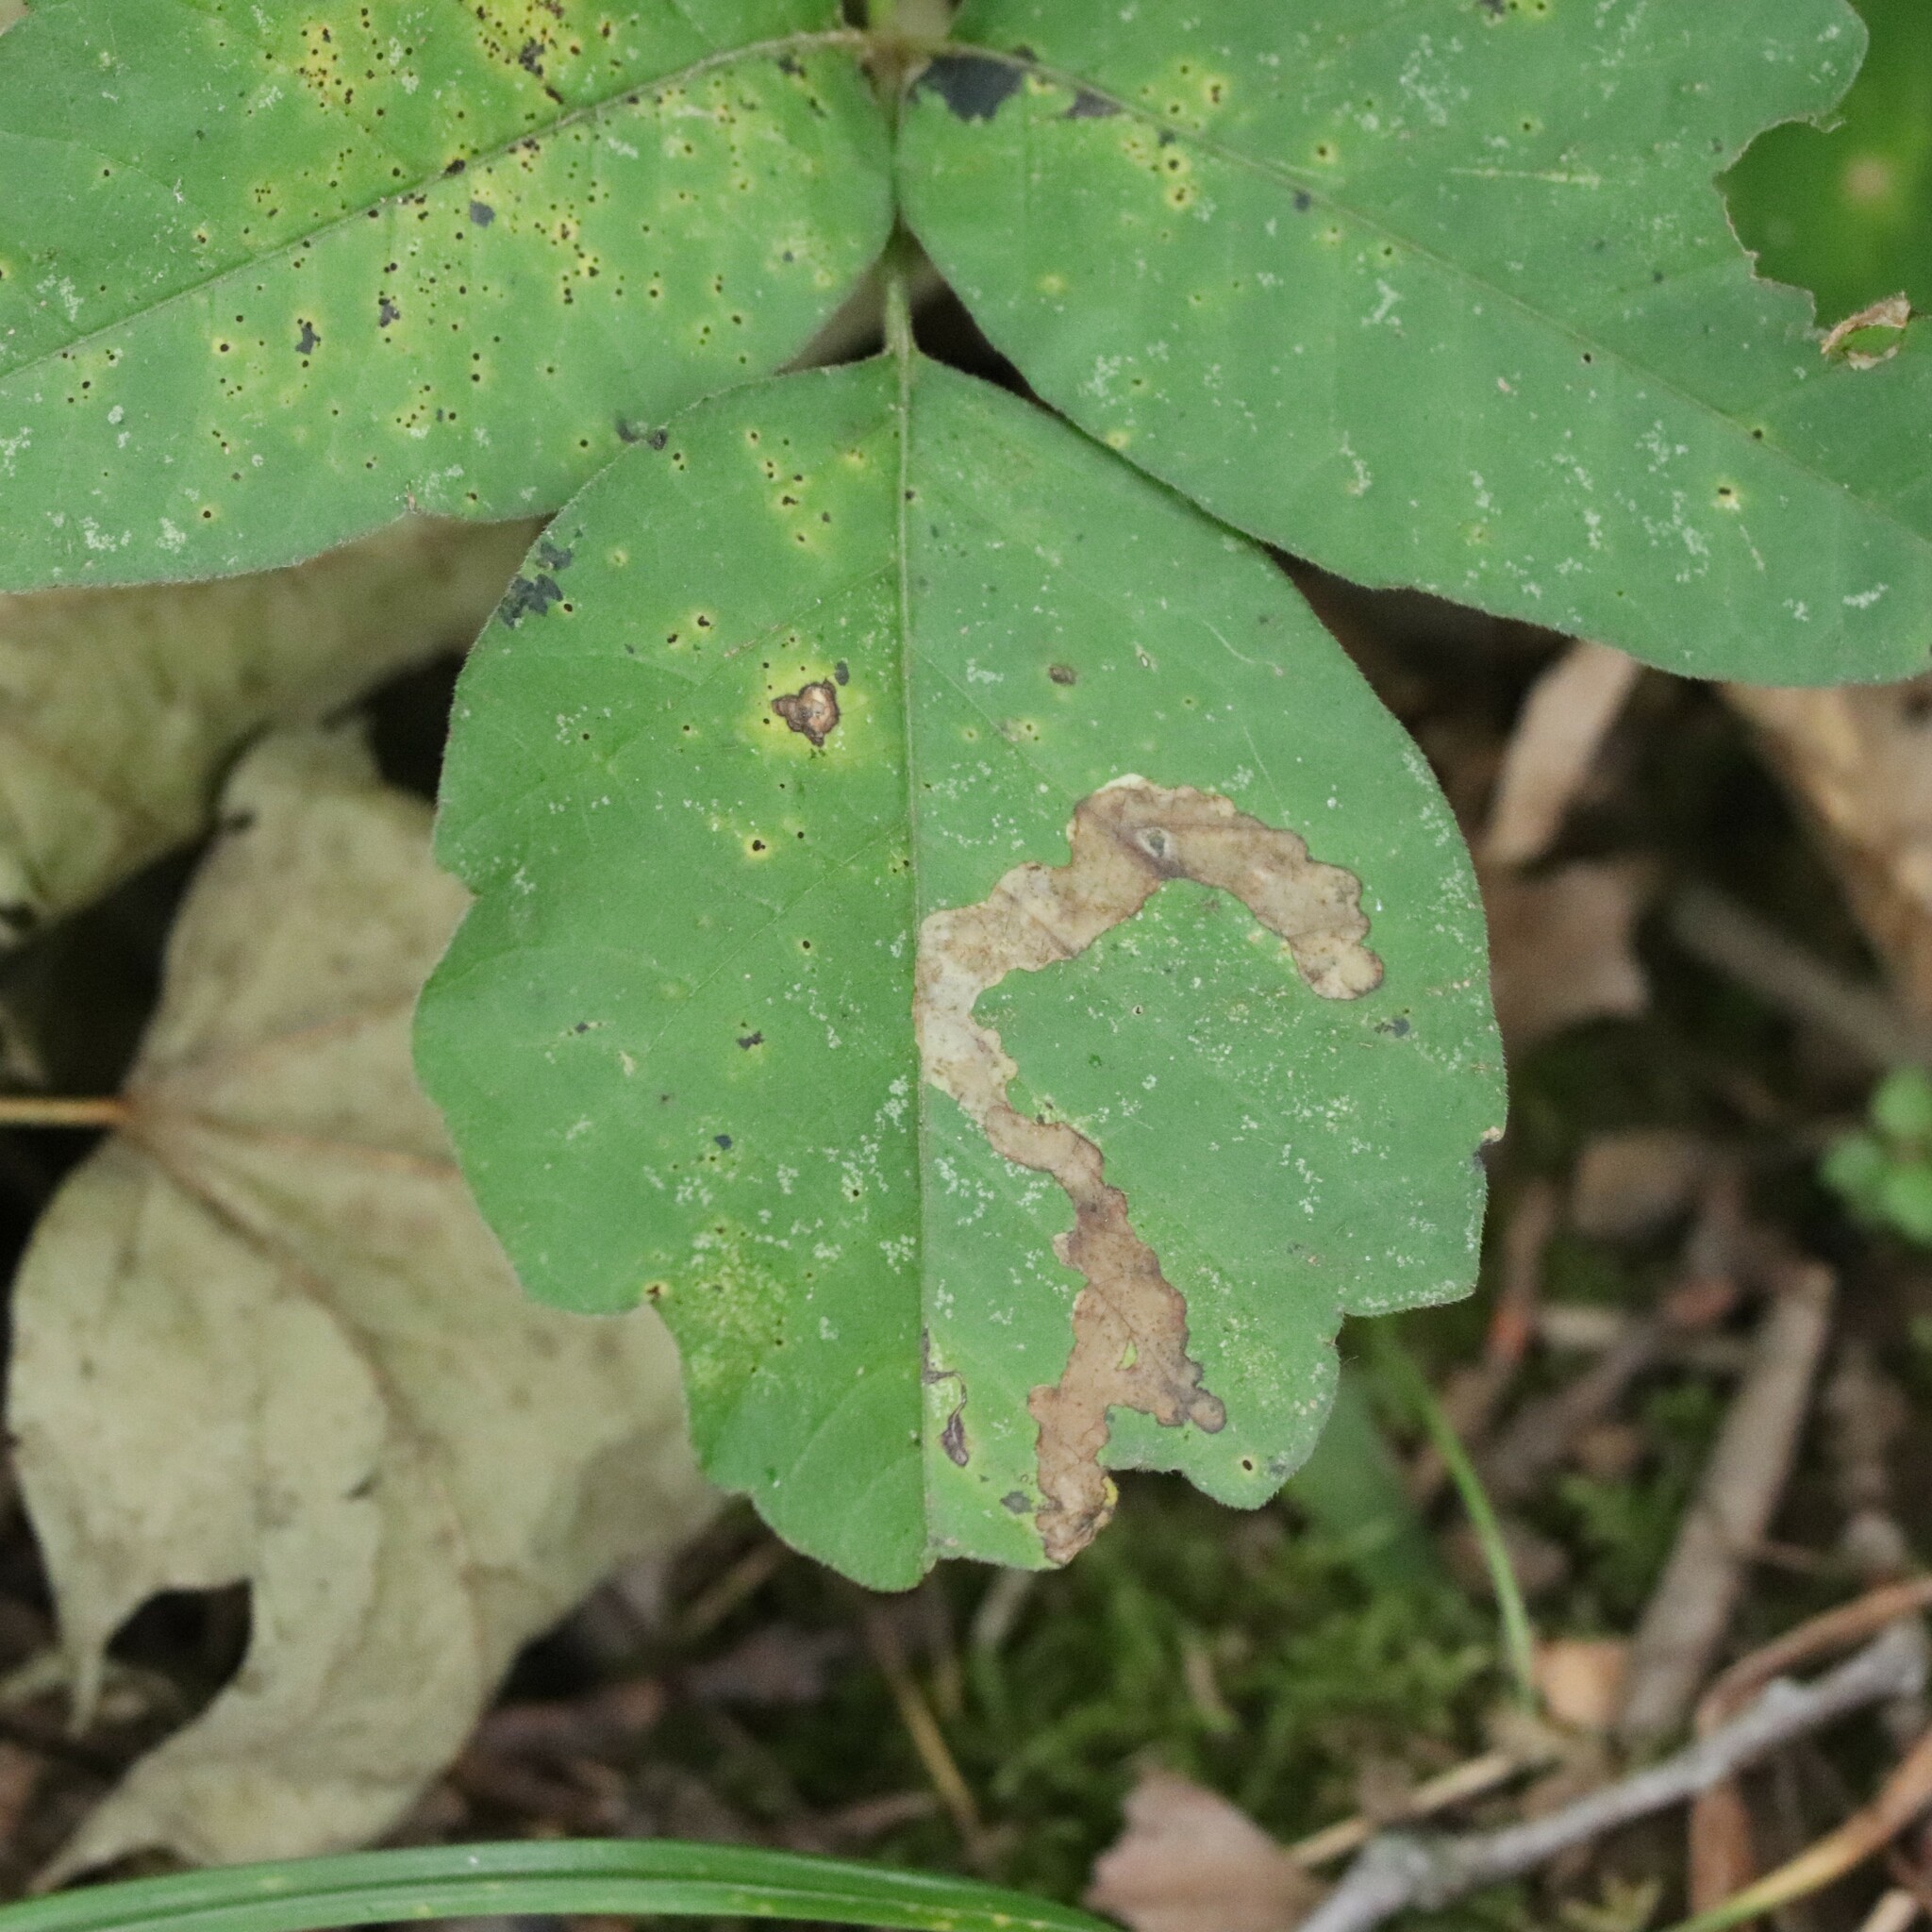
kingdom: Animalia
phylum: Arthropoda
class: Insecta
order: Lepidoptera
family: Gracillariidae
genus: Cameraria
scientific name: Cameraria guttifinitella
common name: Poison ivy leaf-miner moth
